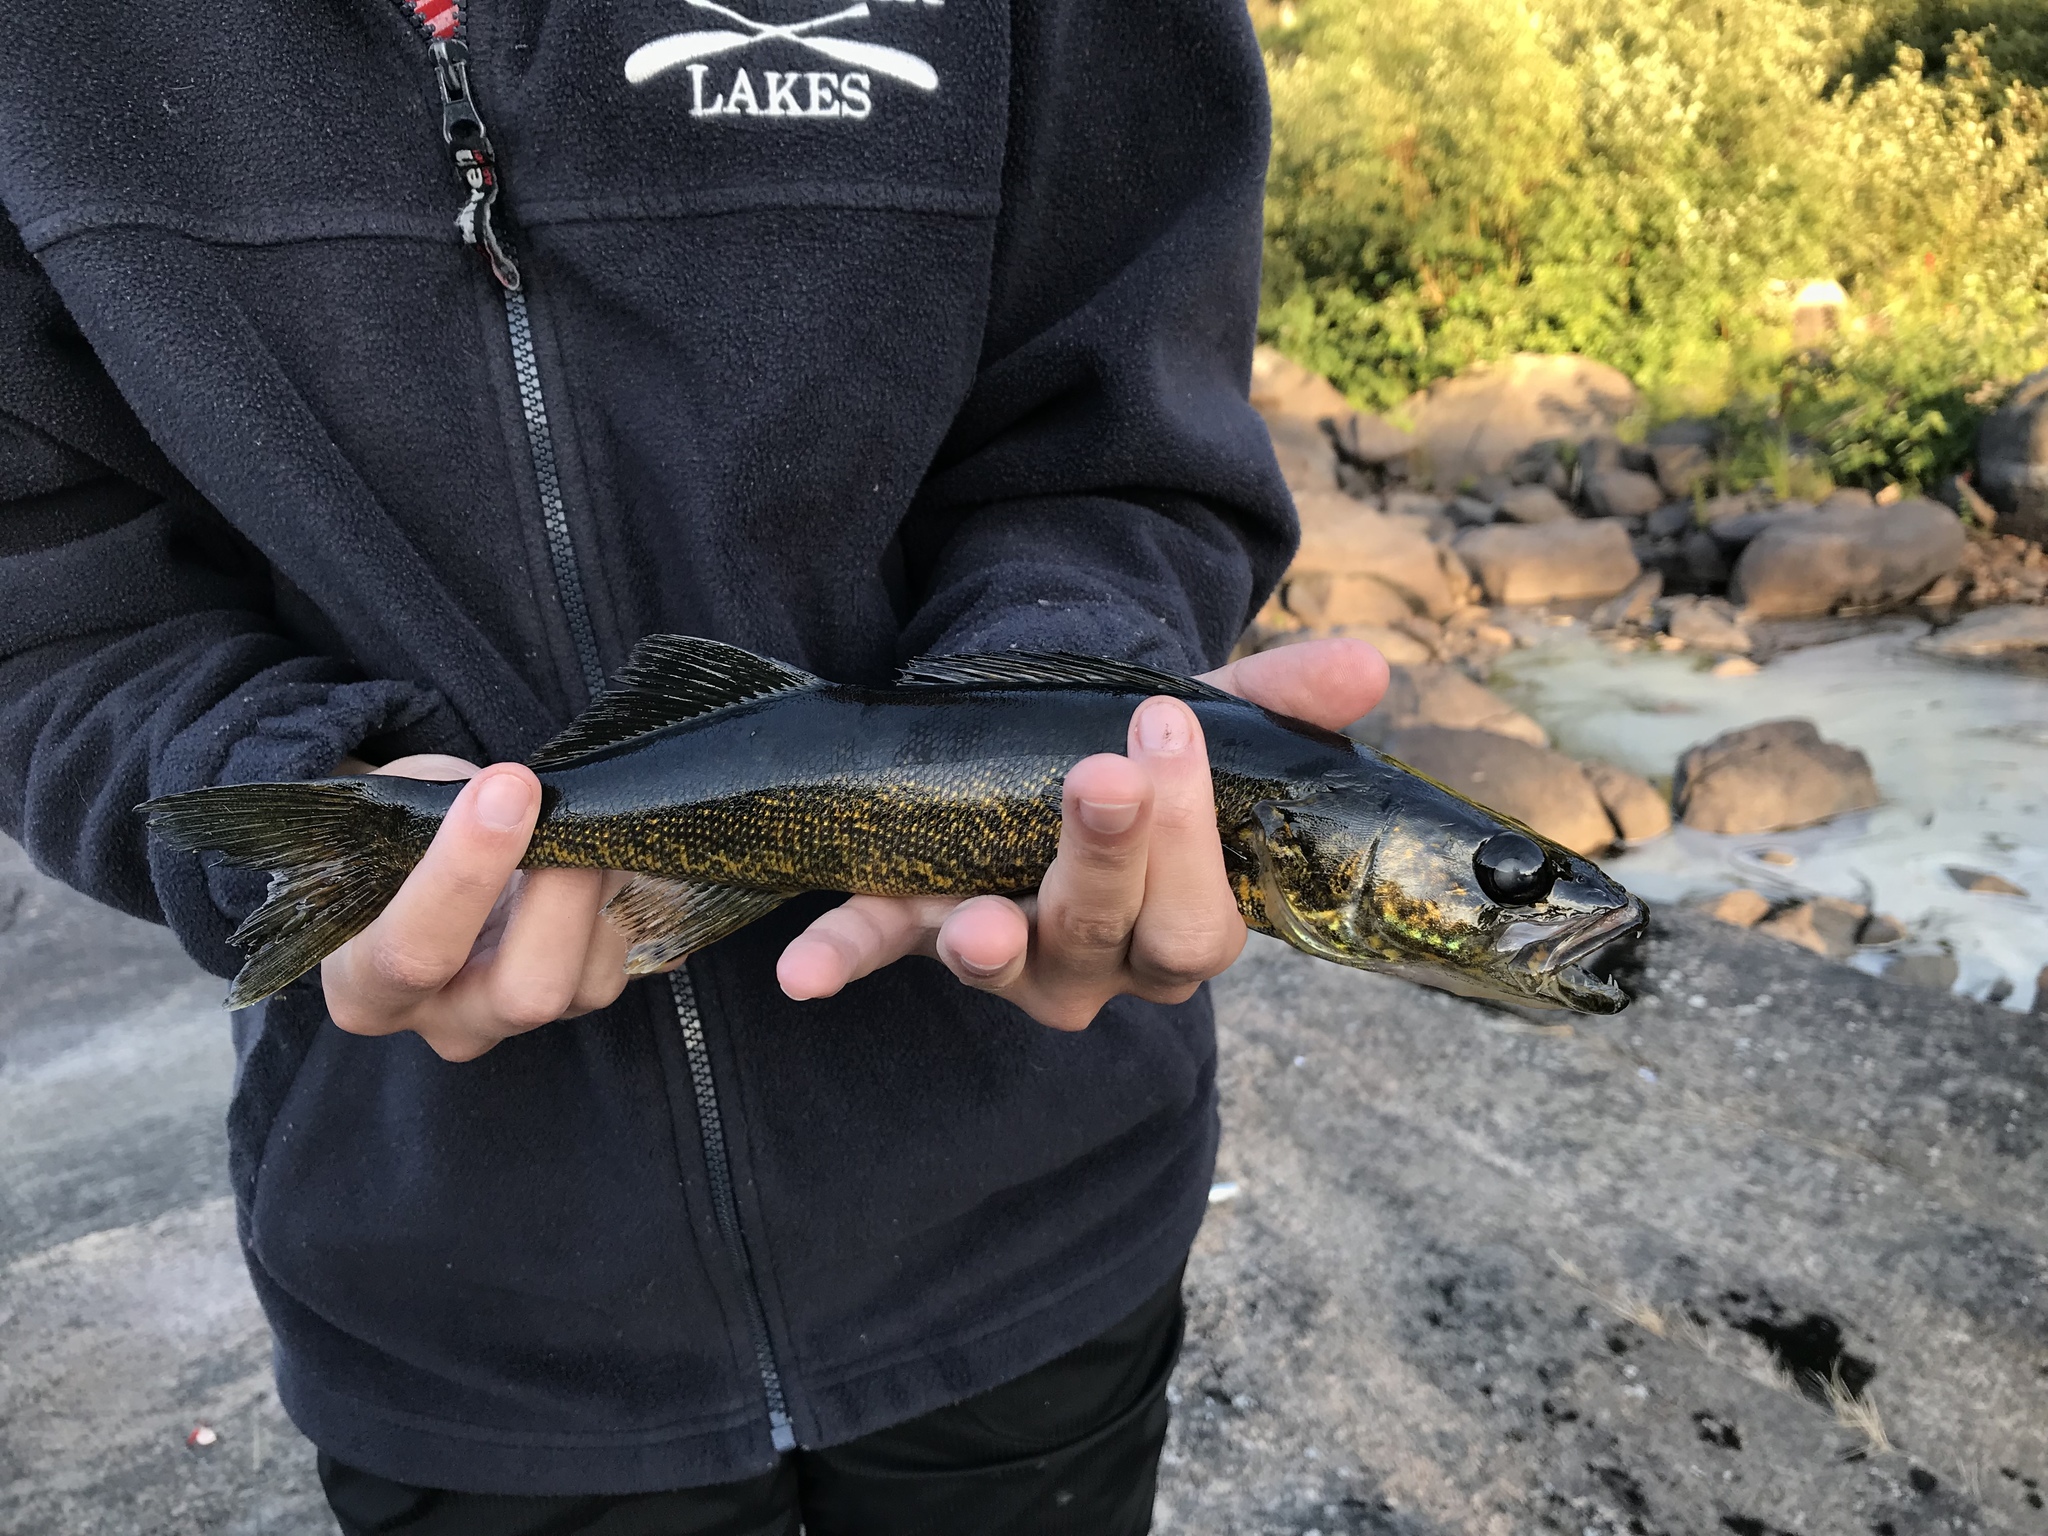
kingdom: Animalia
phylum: Chordata
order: Perciformes
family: Percidae
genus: Sander
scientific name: Sander vitreus
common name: Walleye
